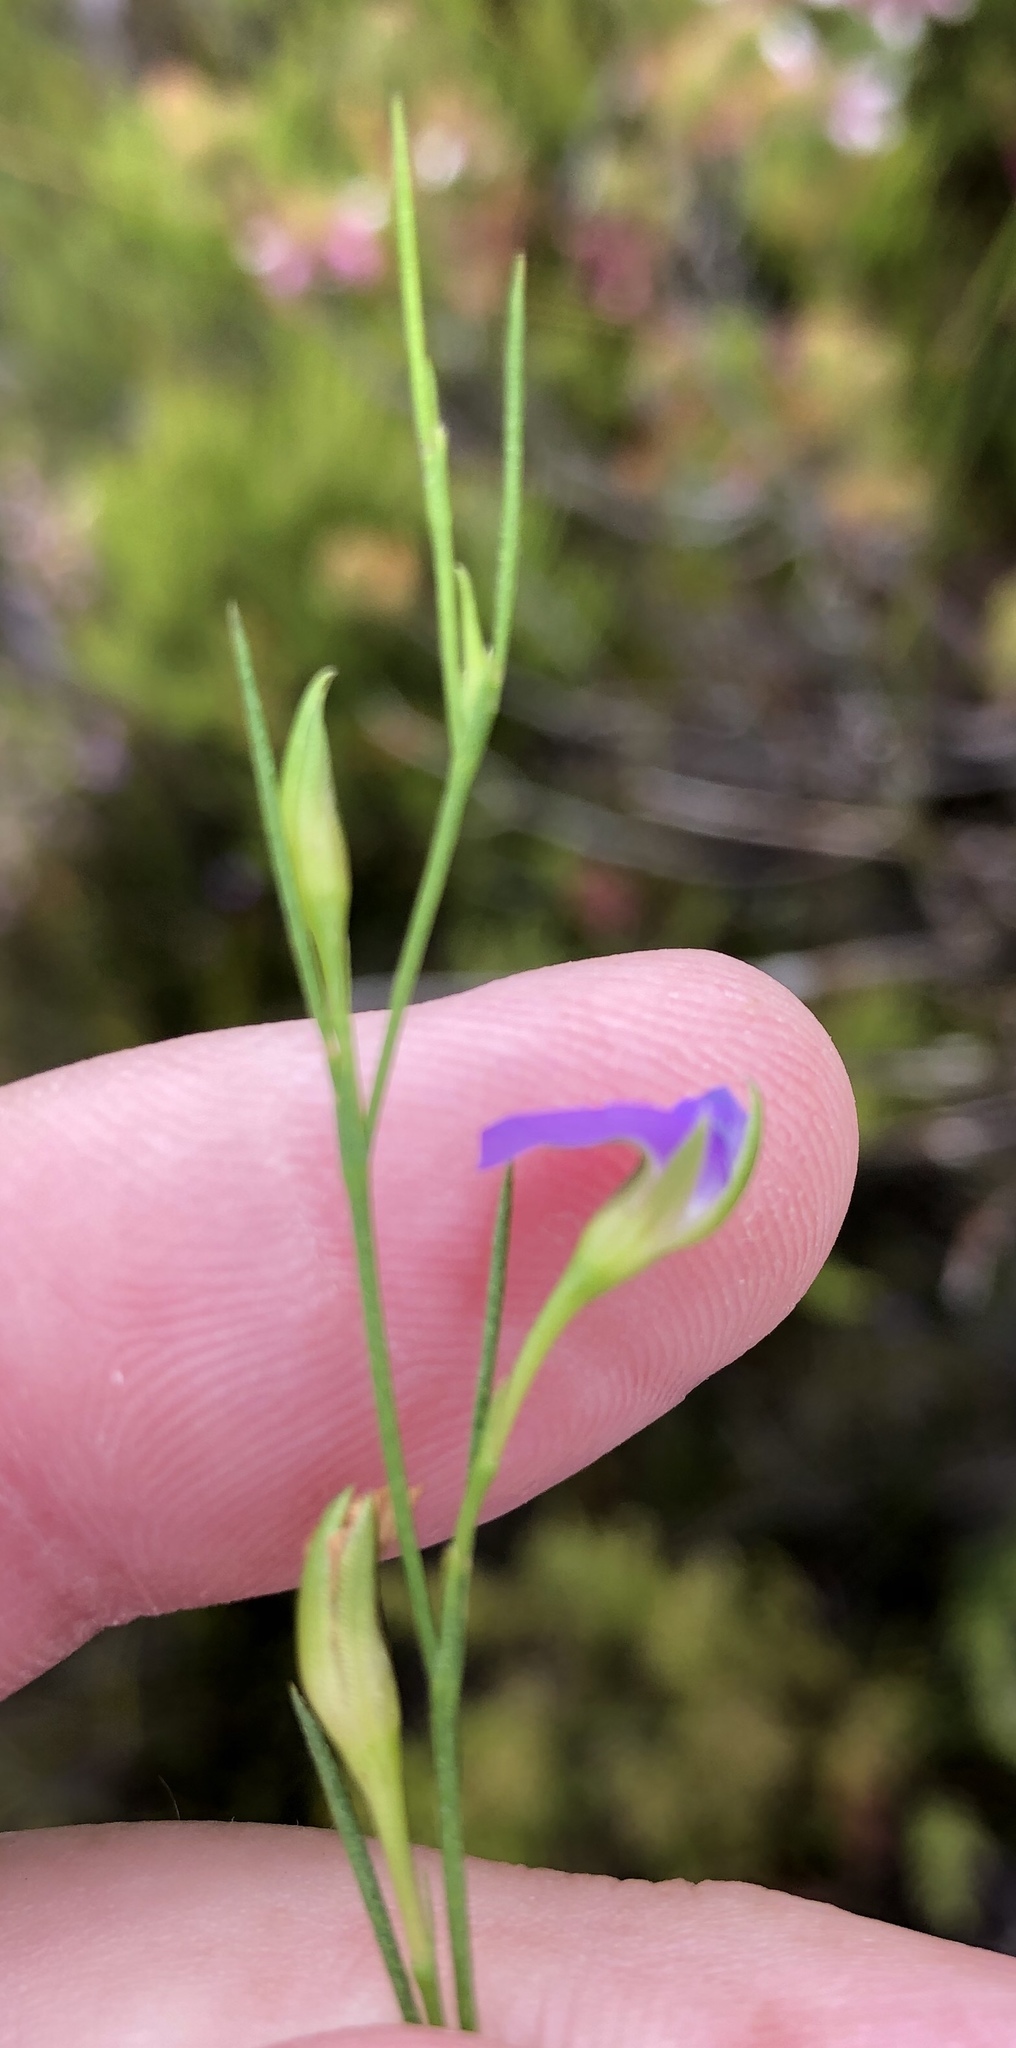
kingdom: Plantae
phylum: Tracheophyta
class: Magnoliopsida
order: Fabales
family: Fabaceae
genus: Psoralea
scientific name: Psoralea oreophila
